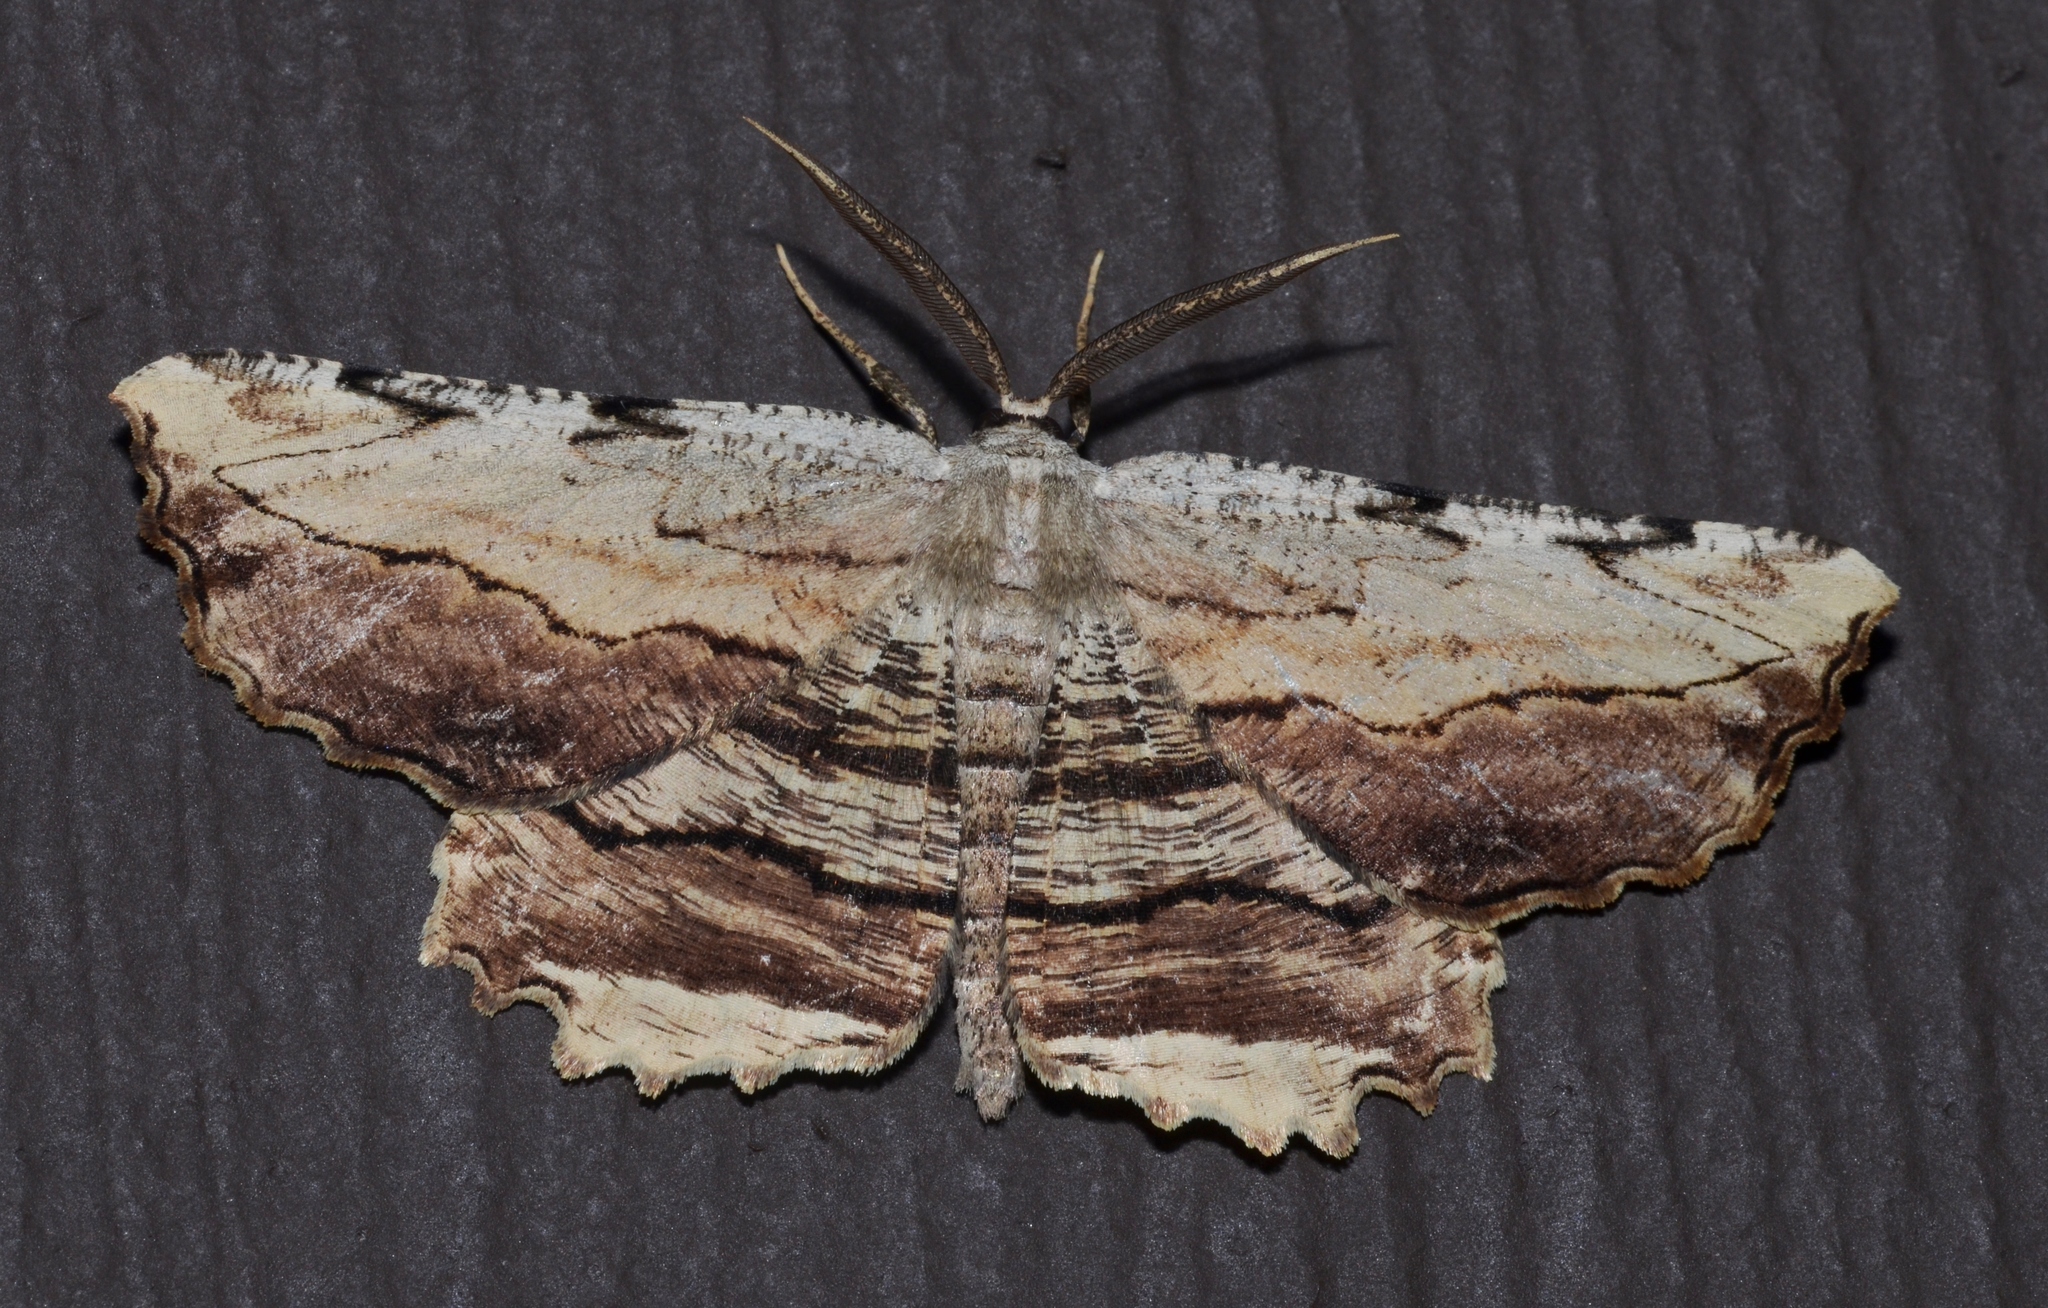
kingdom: Animalia
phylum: Arthropoda
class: Insecta
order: Lepidoptera
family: Geometridae
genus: Lytrosis
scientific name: Lytrosis unitaria
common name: Common lytrosis
